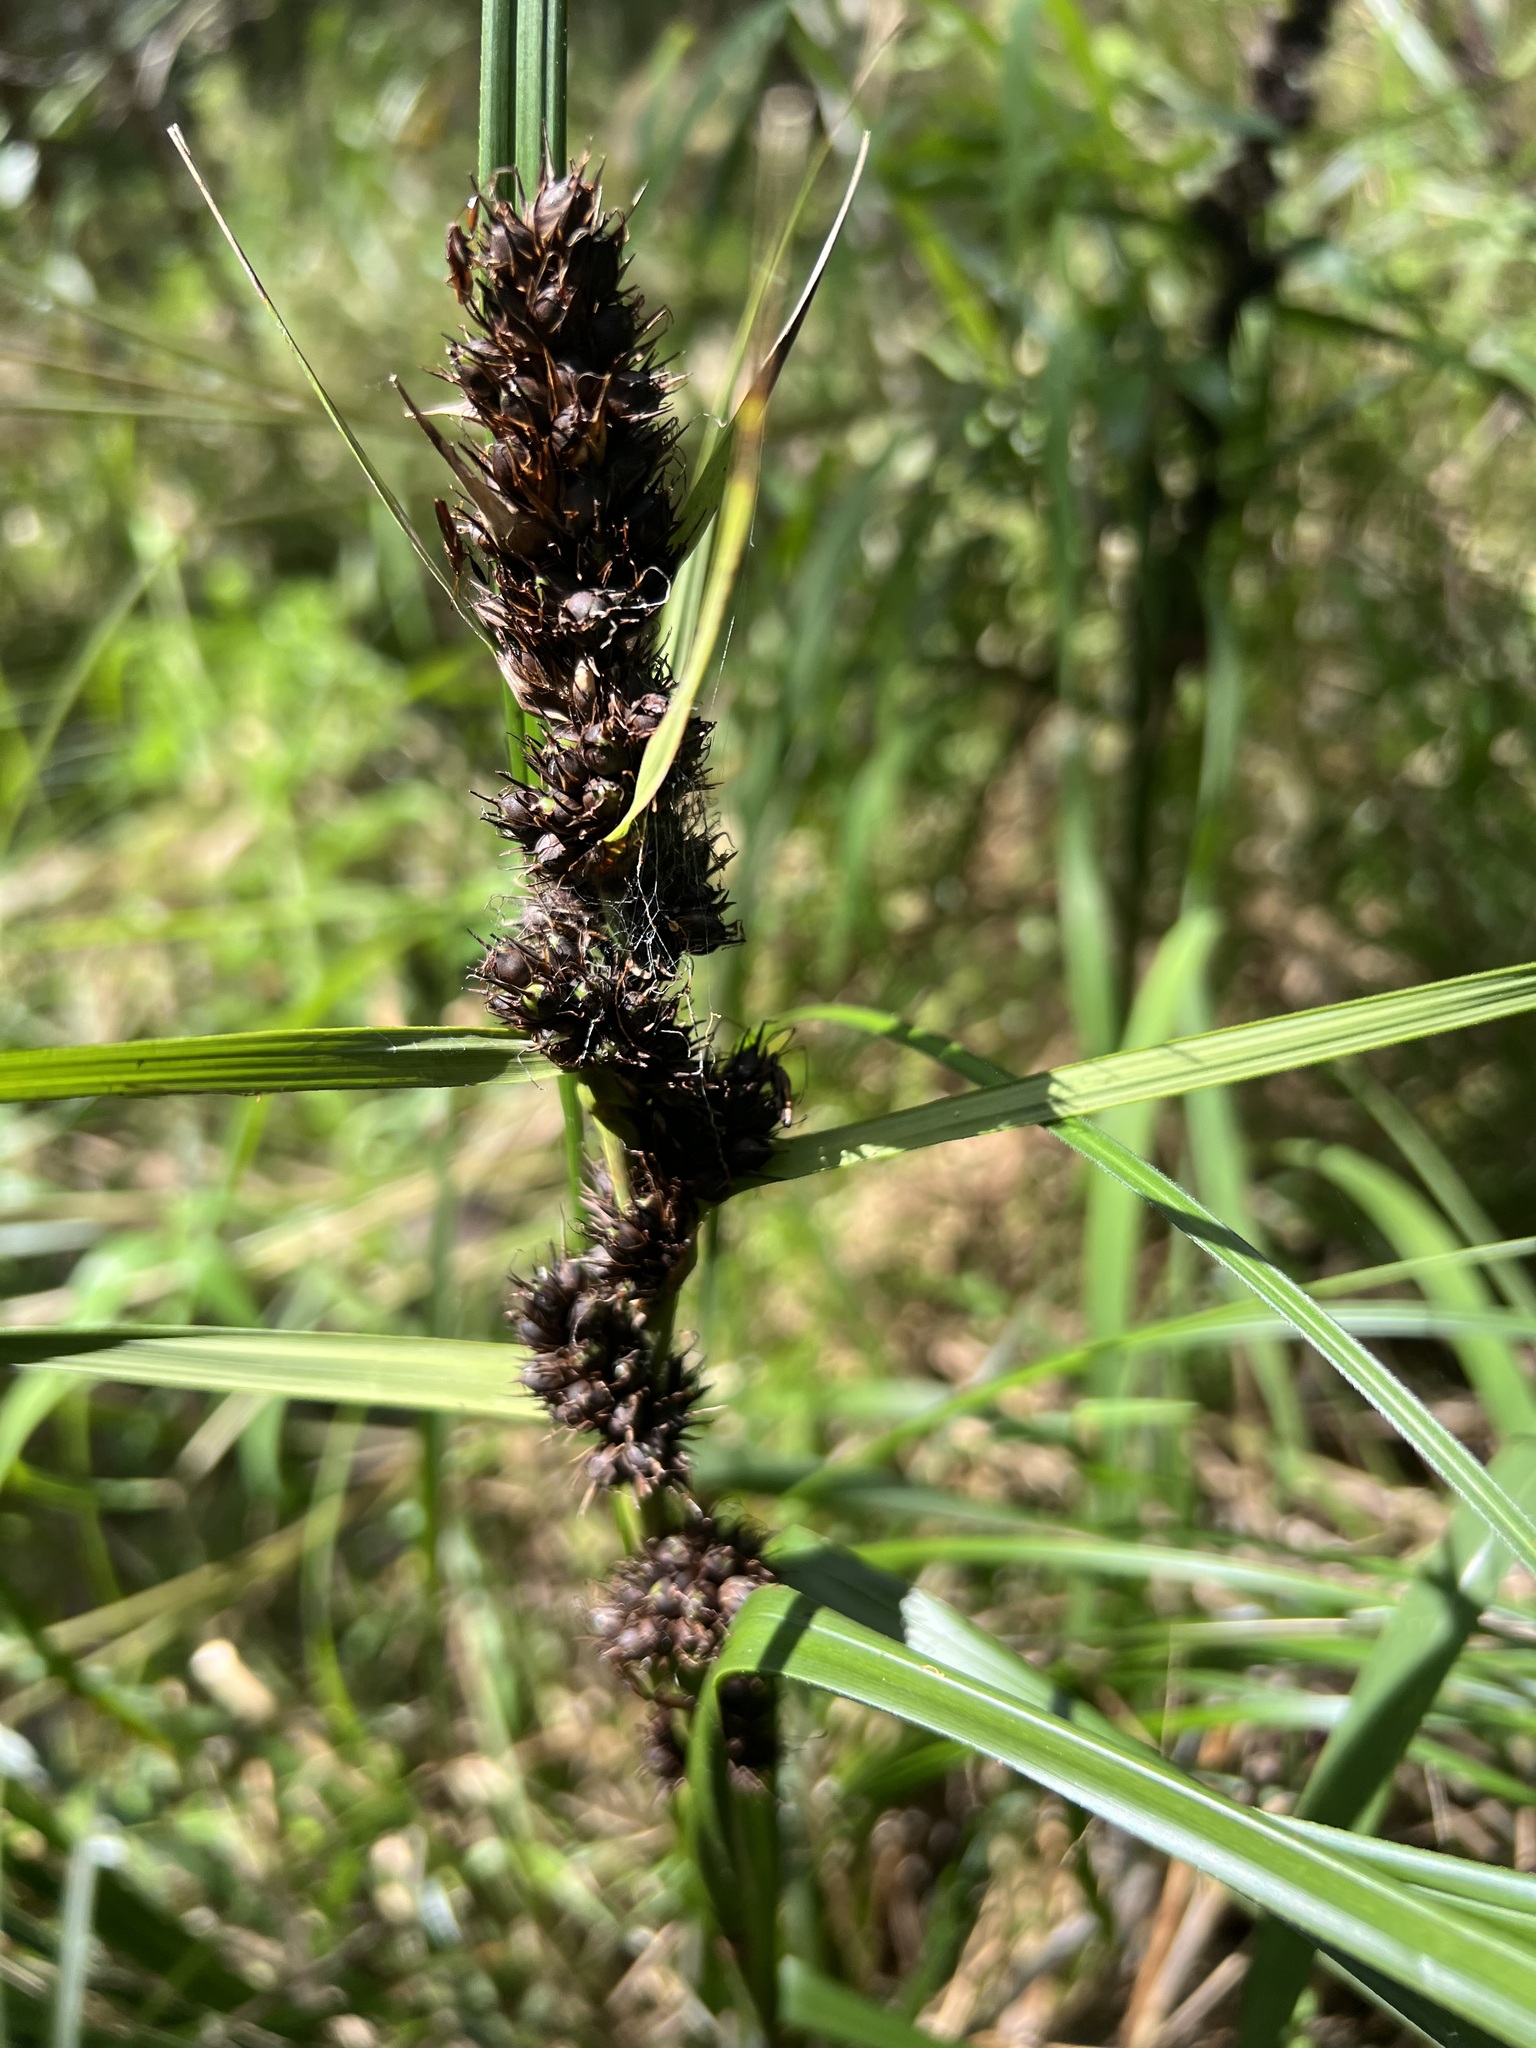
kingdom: Plantae
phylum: Tracheophyta
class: Liliopsida
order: Poales
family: Cyperaceae
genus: Gahnia
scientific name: Gahnia aspera
